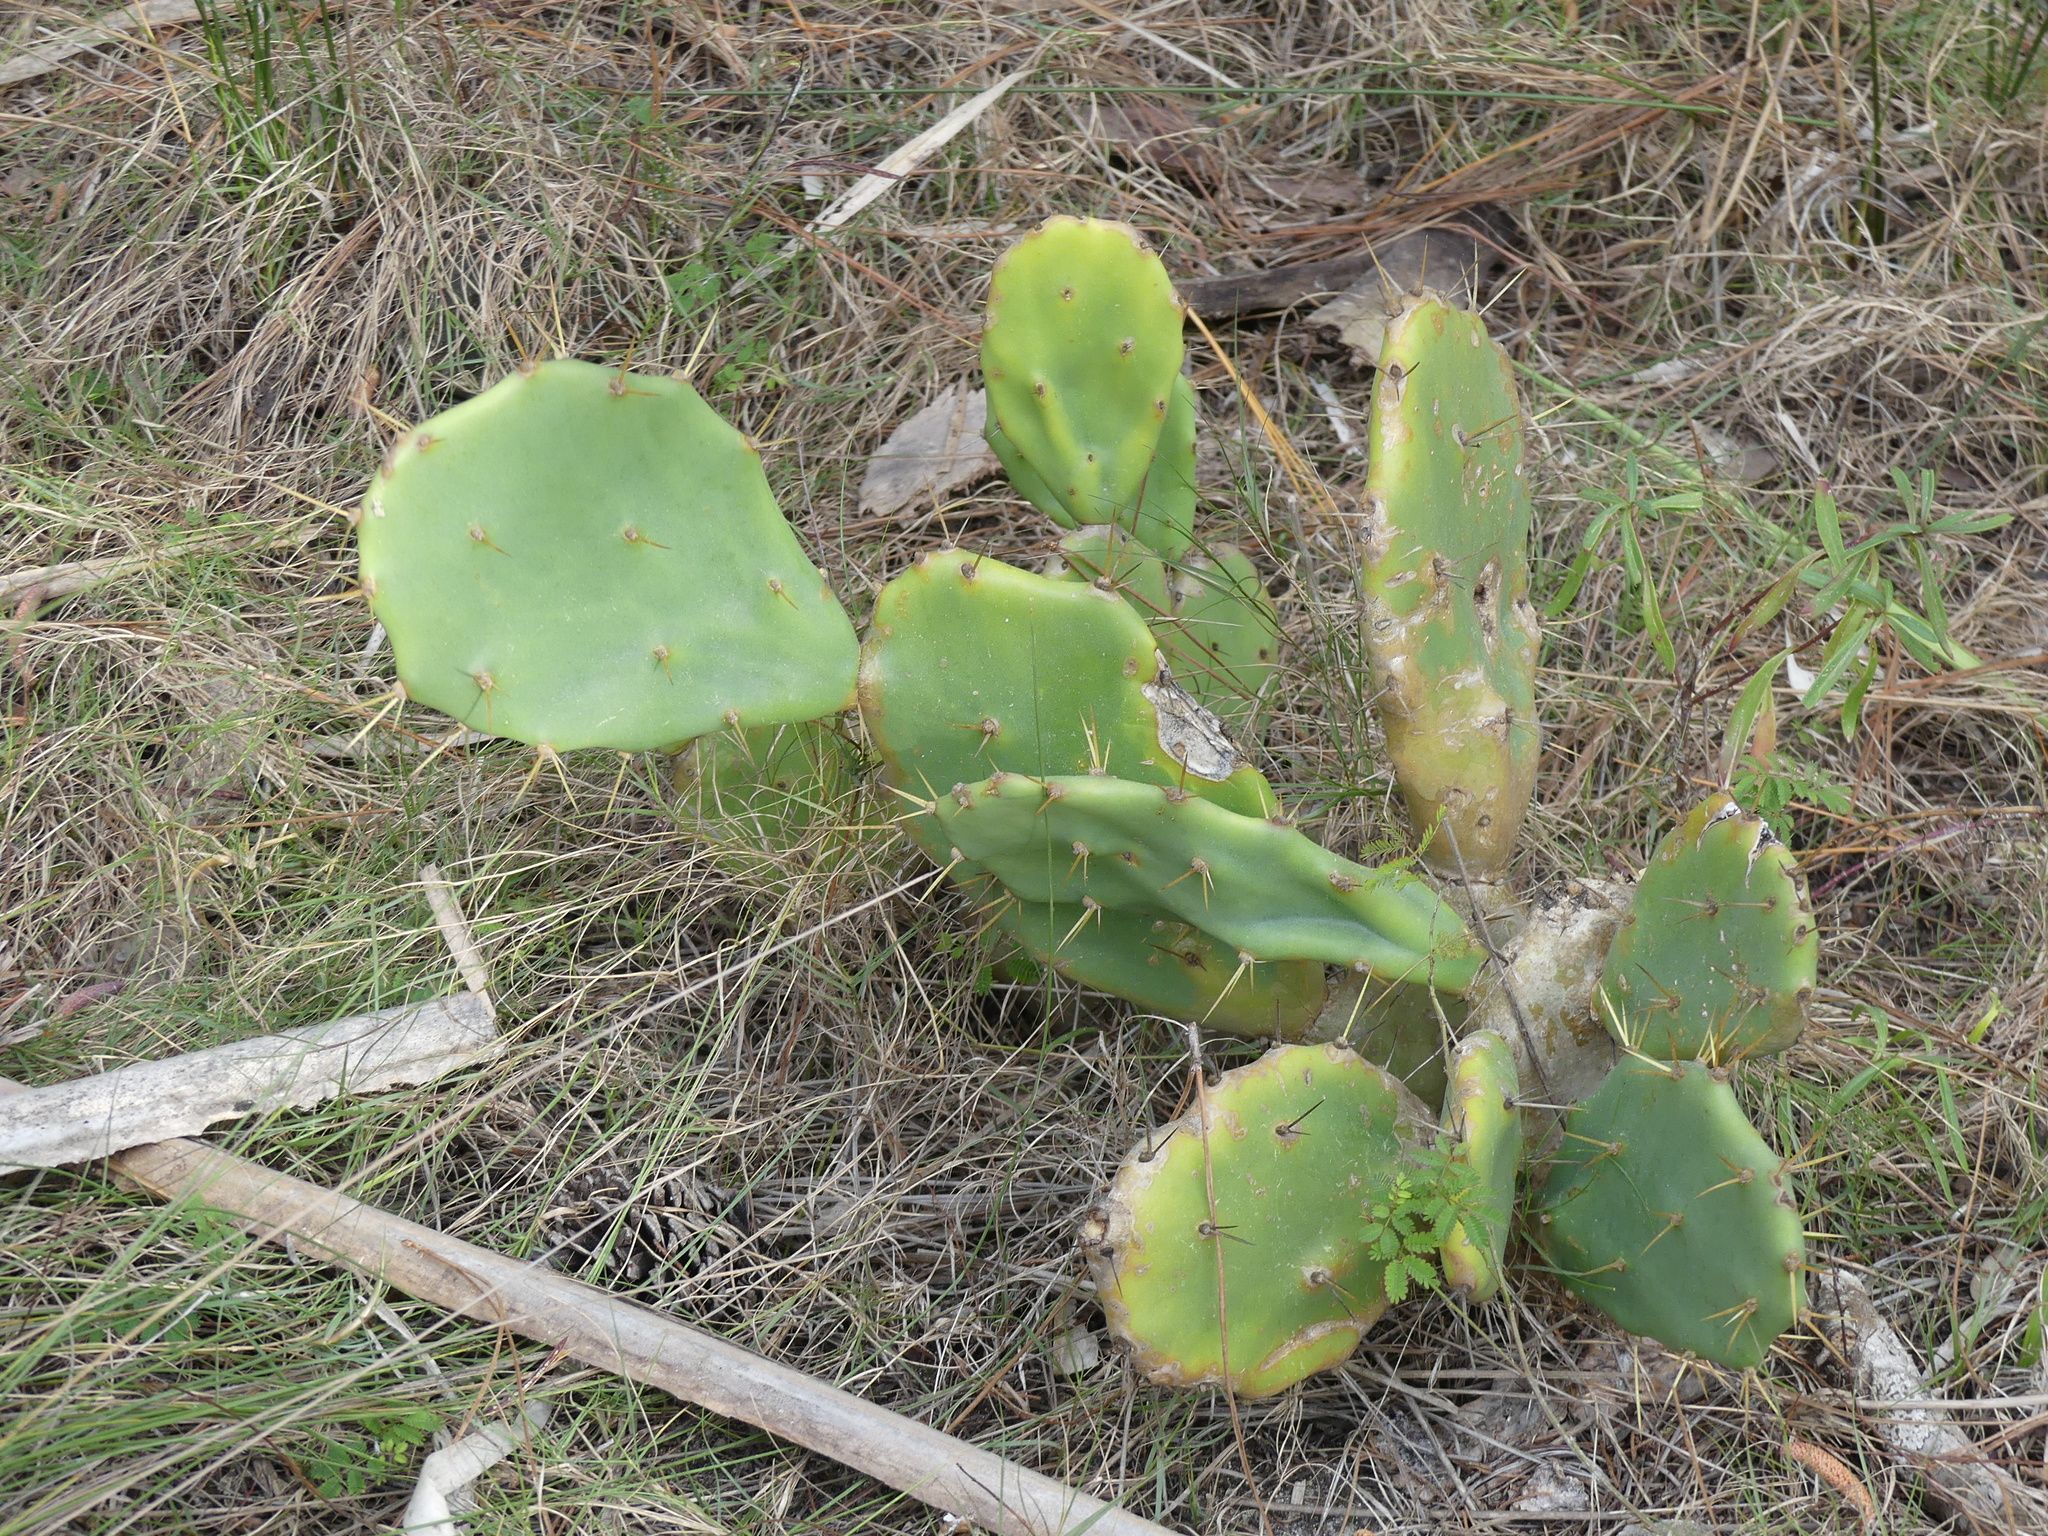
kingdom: Plantae
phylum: Tracheophyta
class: Magnoliopsida
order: Caryophyllales
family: Cactaceae
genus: Opuntia
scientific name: Opuntia stricta
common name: Erect pricklypear
